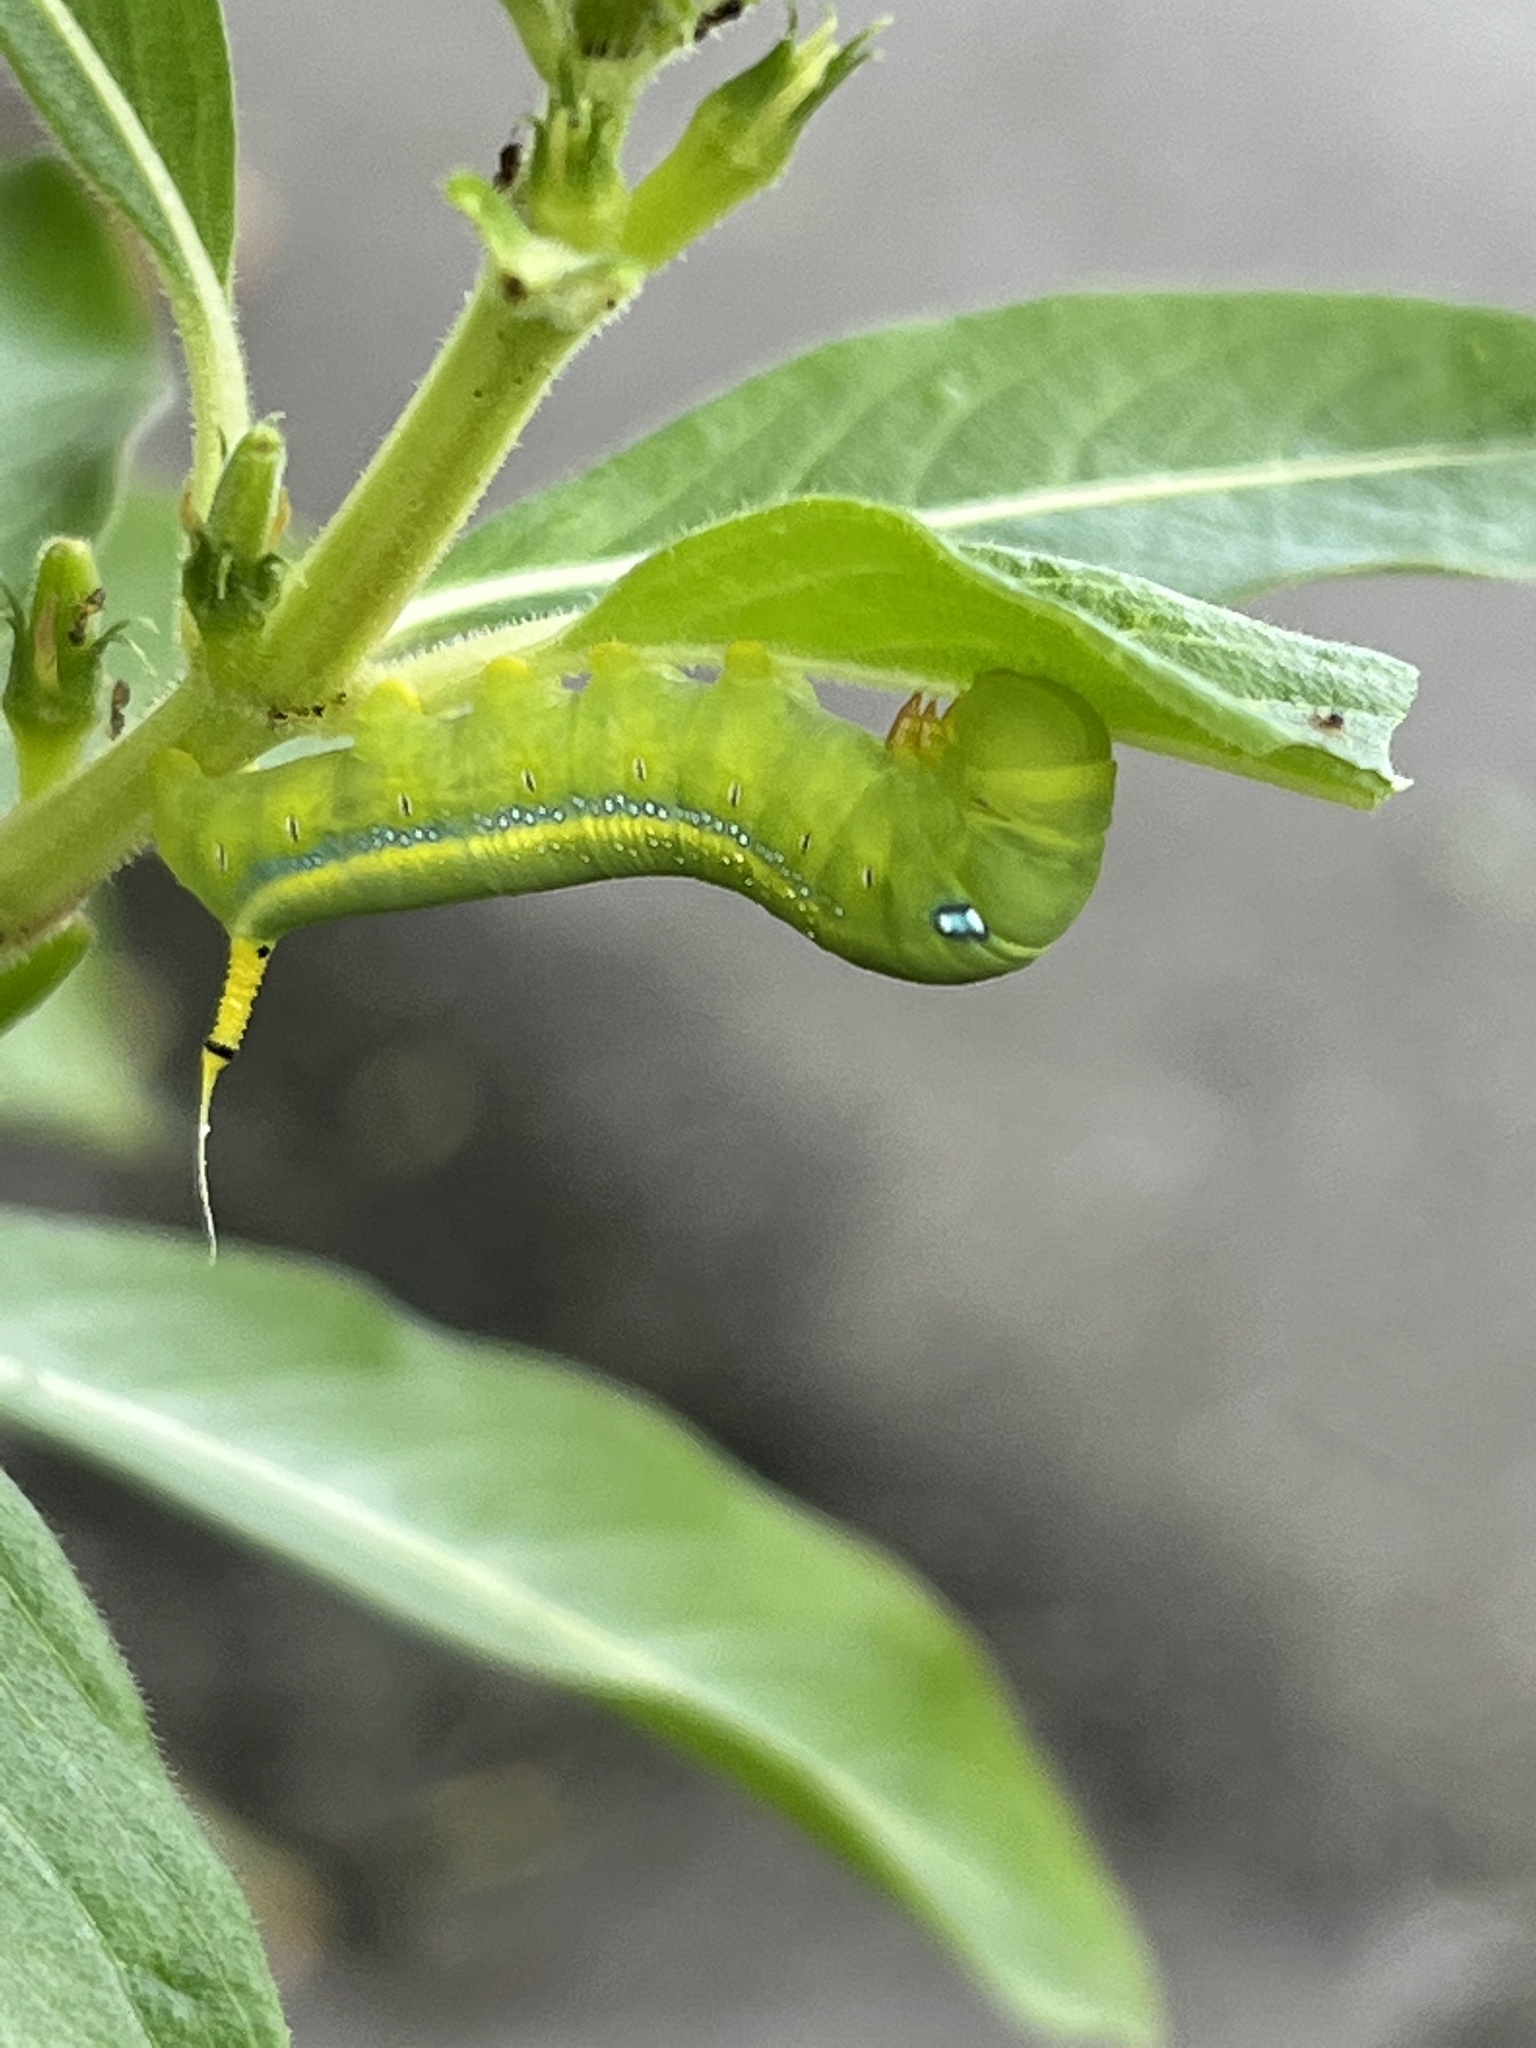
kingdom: Animalia
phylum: Arthropoda
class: Insecta
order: Lepidoptera
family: Sphingidae
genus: Daphnis
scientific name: Daphnis nerii
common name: Oleander hawk-moth
